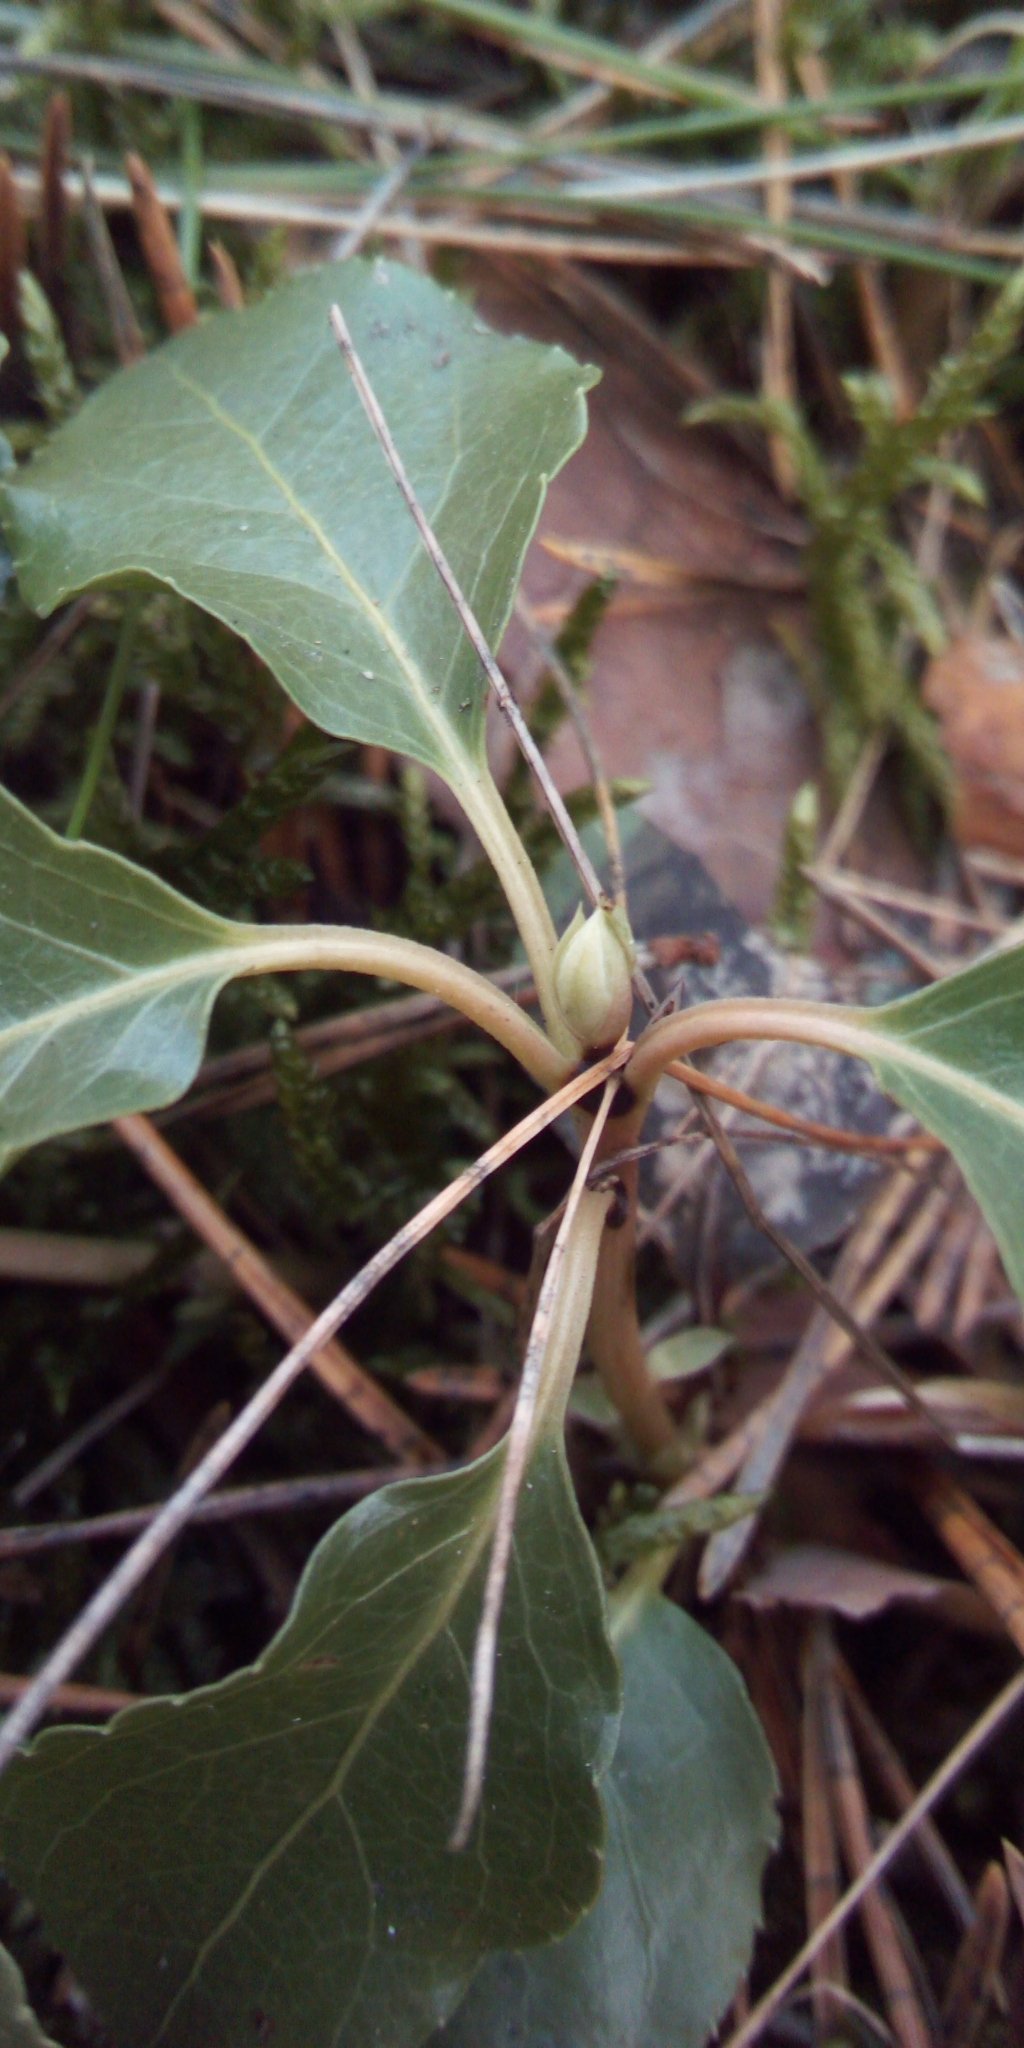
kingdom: Plantae
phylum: Tracheophyta
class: Magnoliopsida
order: Ericales
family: Ericaceae
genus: Orthilia
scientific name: Orthilia secunda
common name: One-sided orthilia
